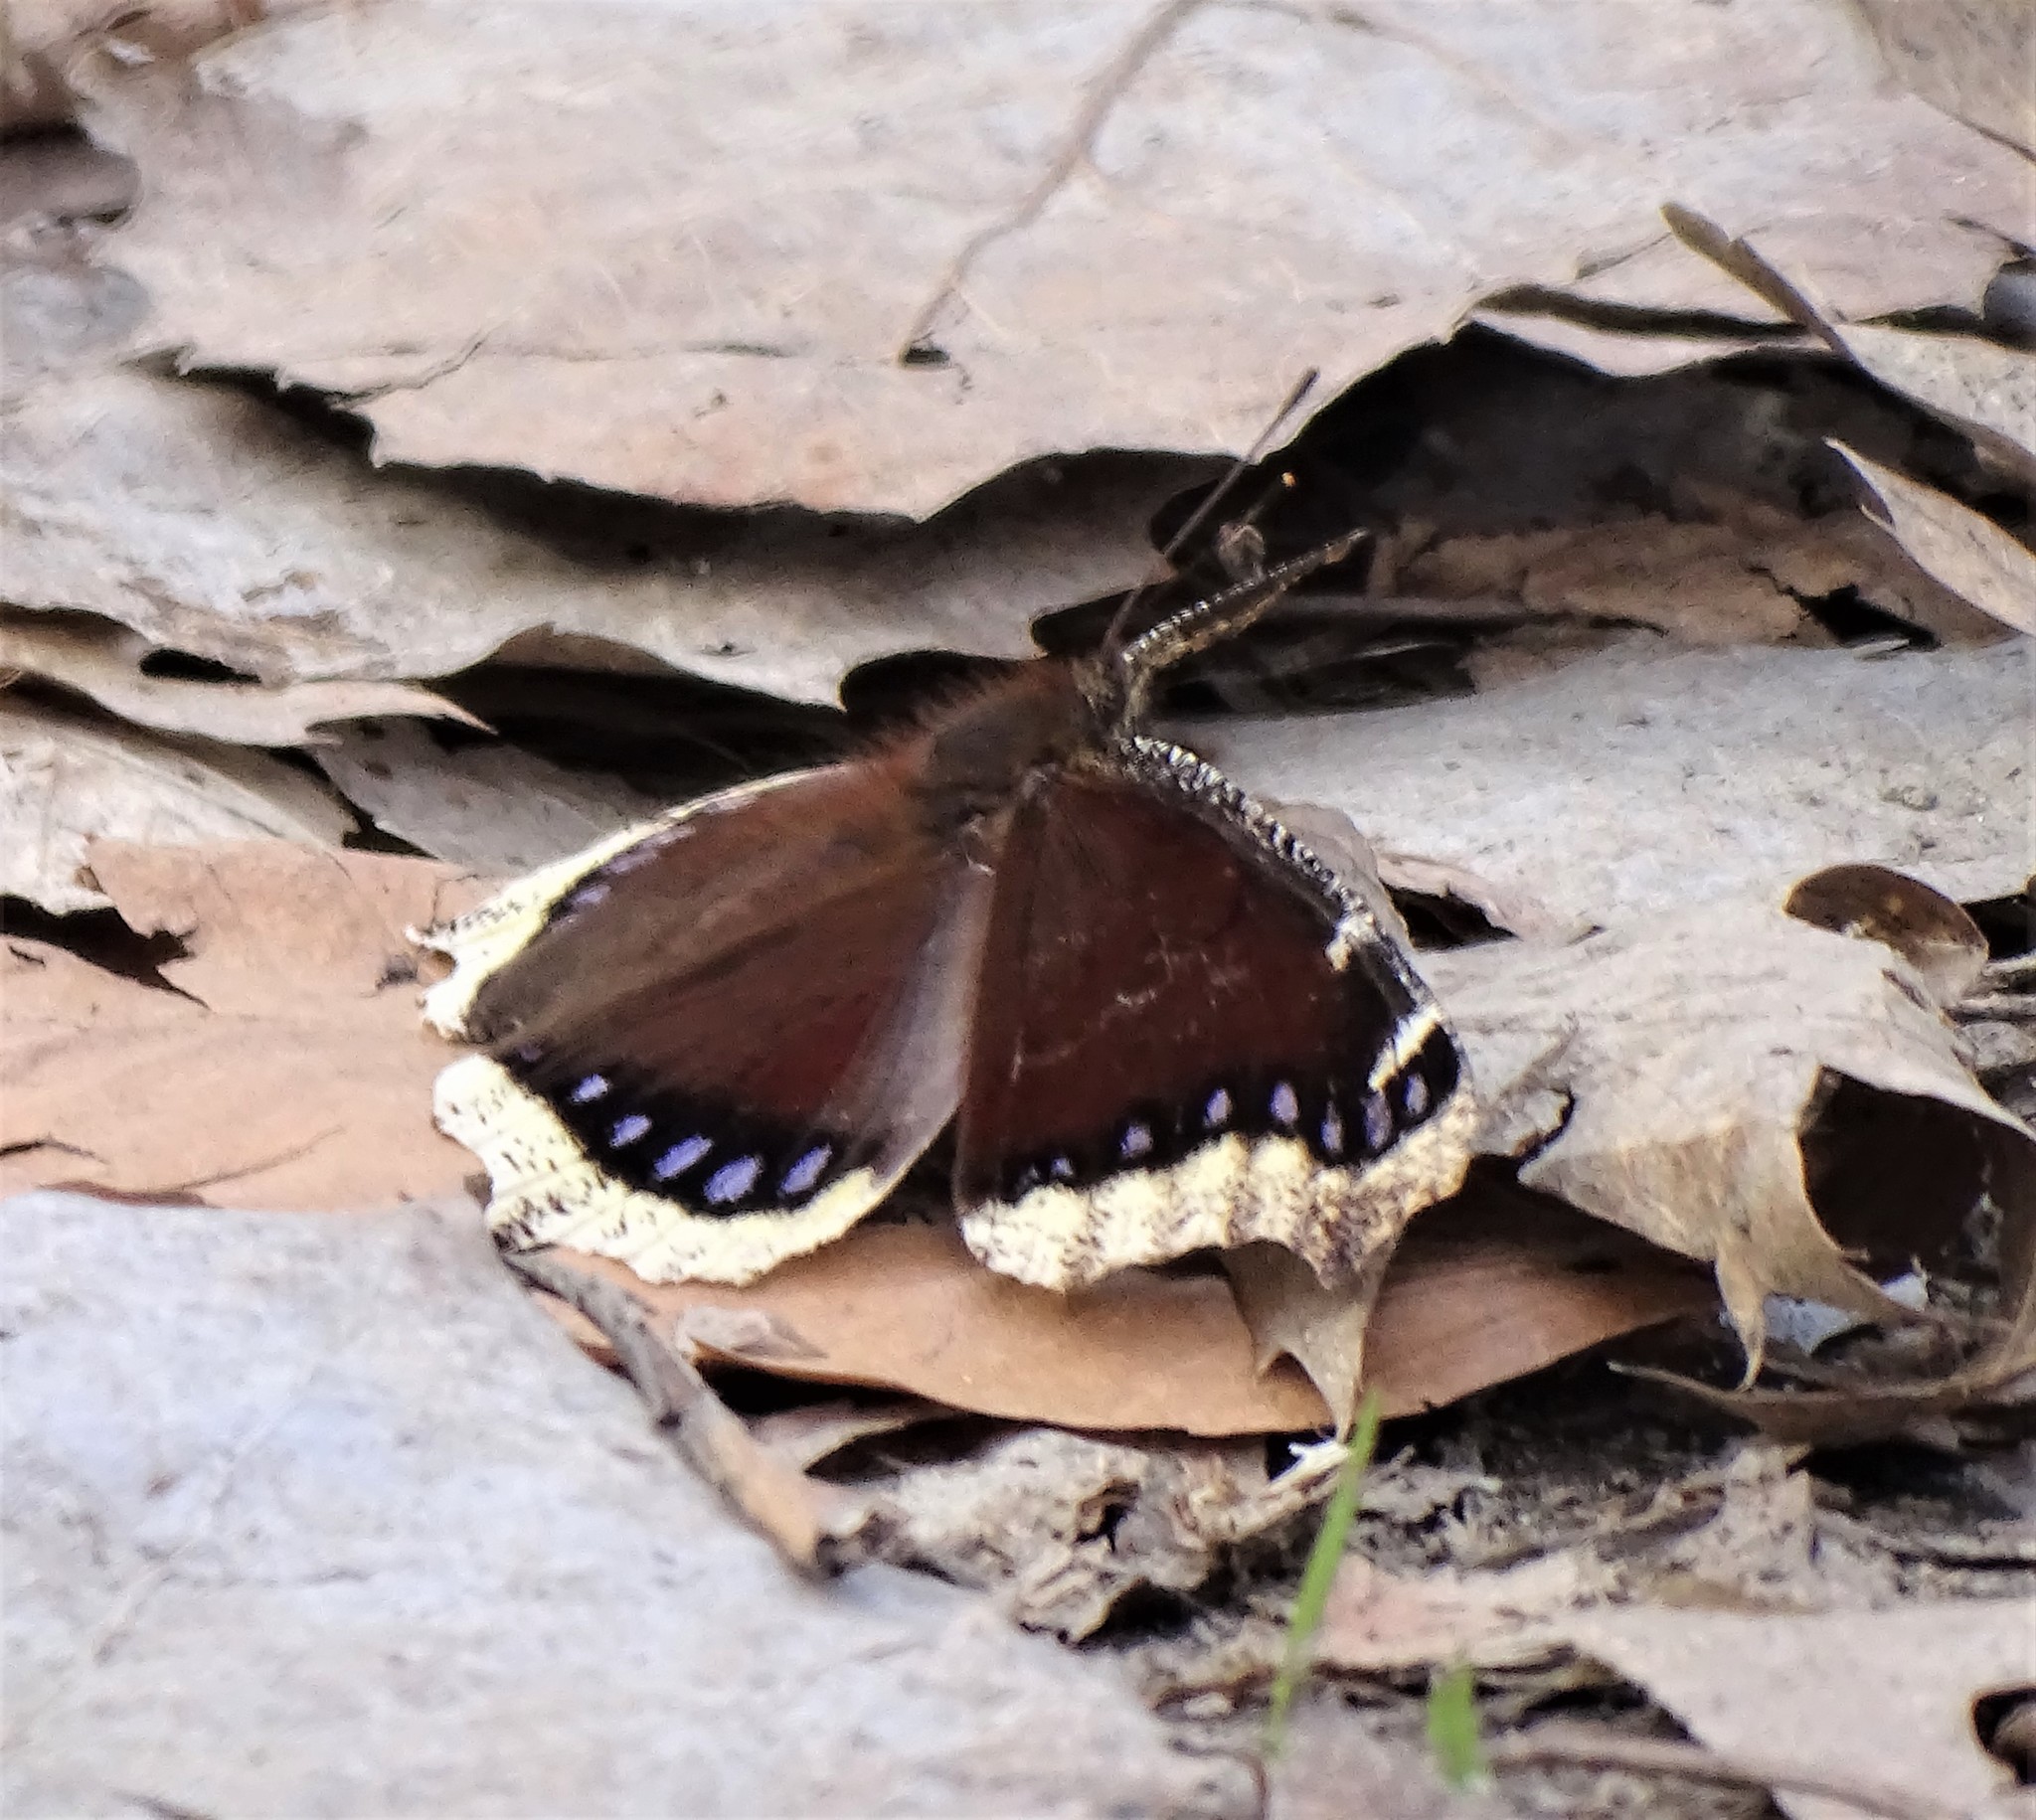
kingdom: Animalia
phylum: Arthropoda
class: Insecta
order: Lepidoptera
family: Nymphalidae
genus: Nymphalis
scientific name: Nymphalis antiopa
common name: Camberwell beauty
